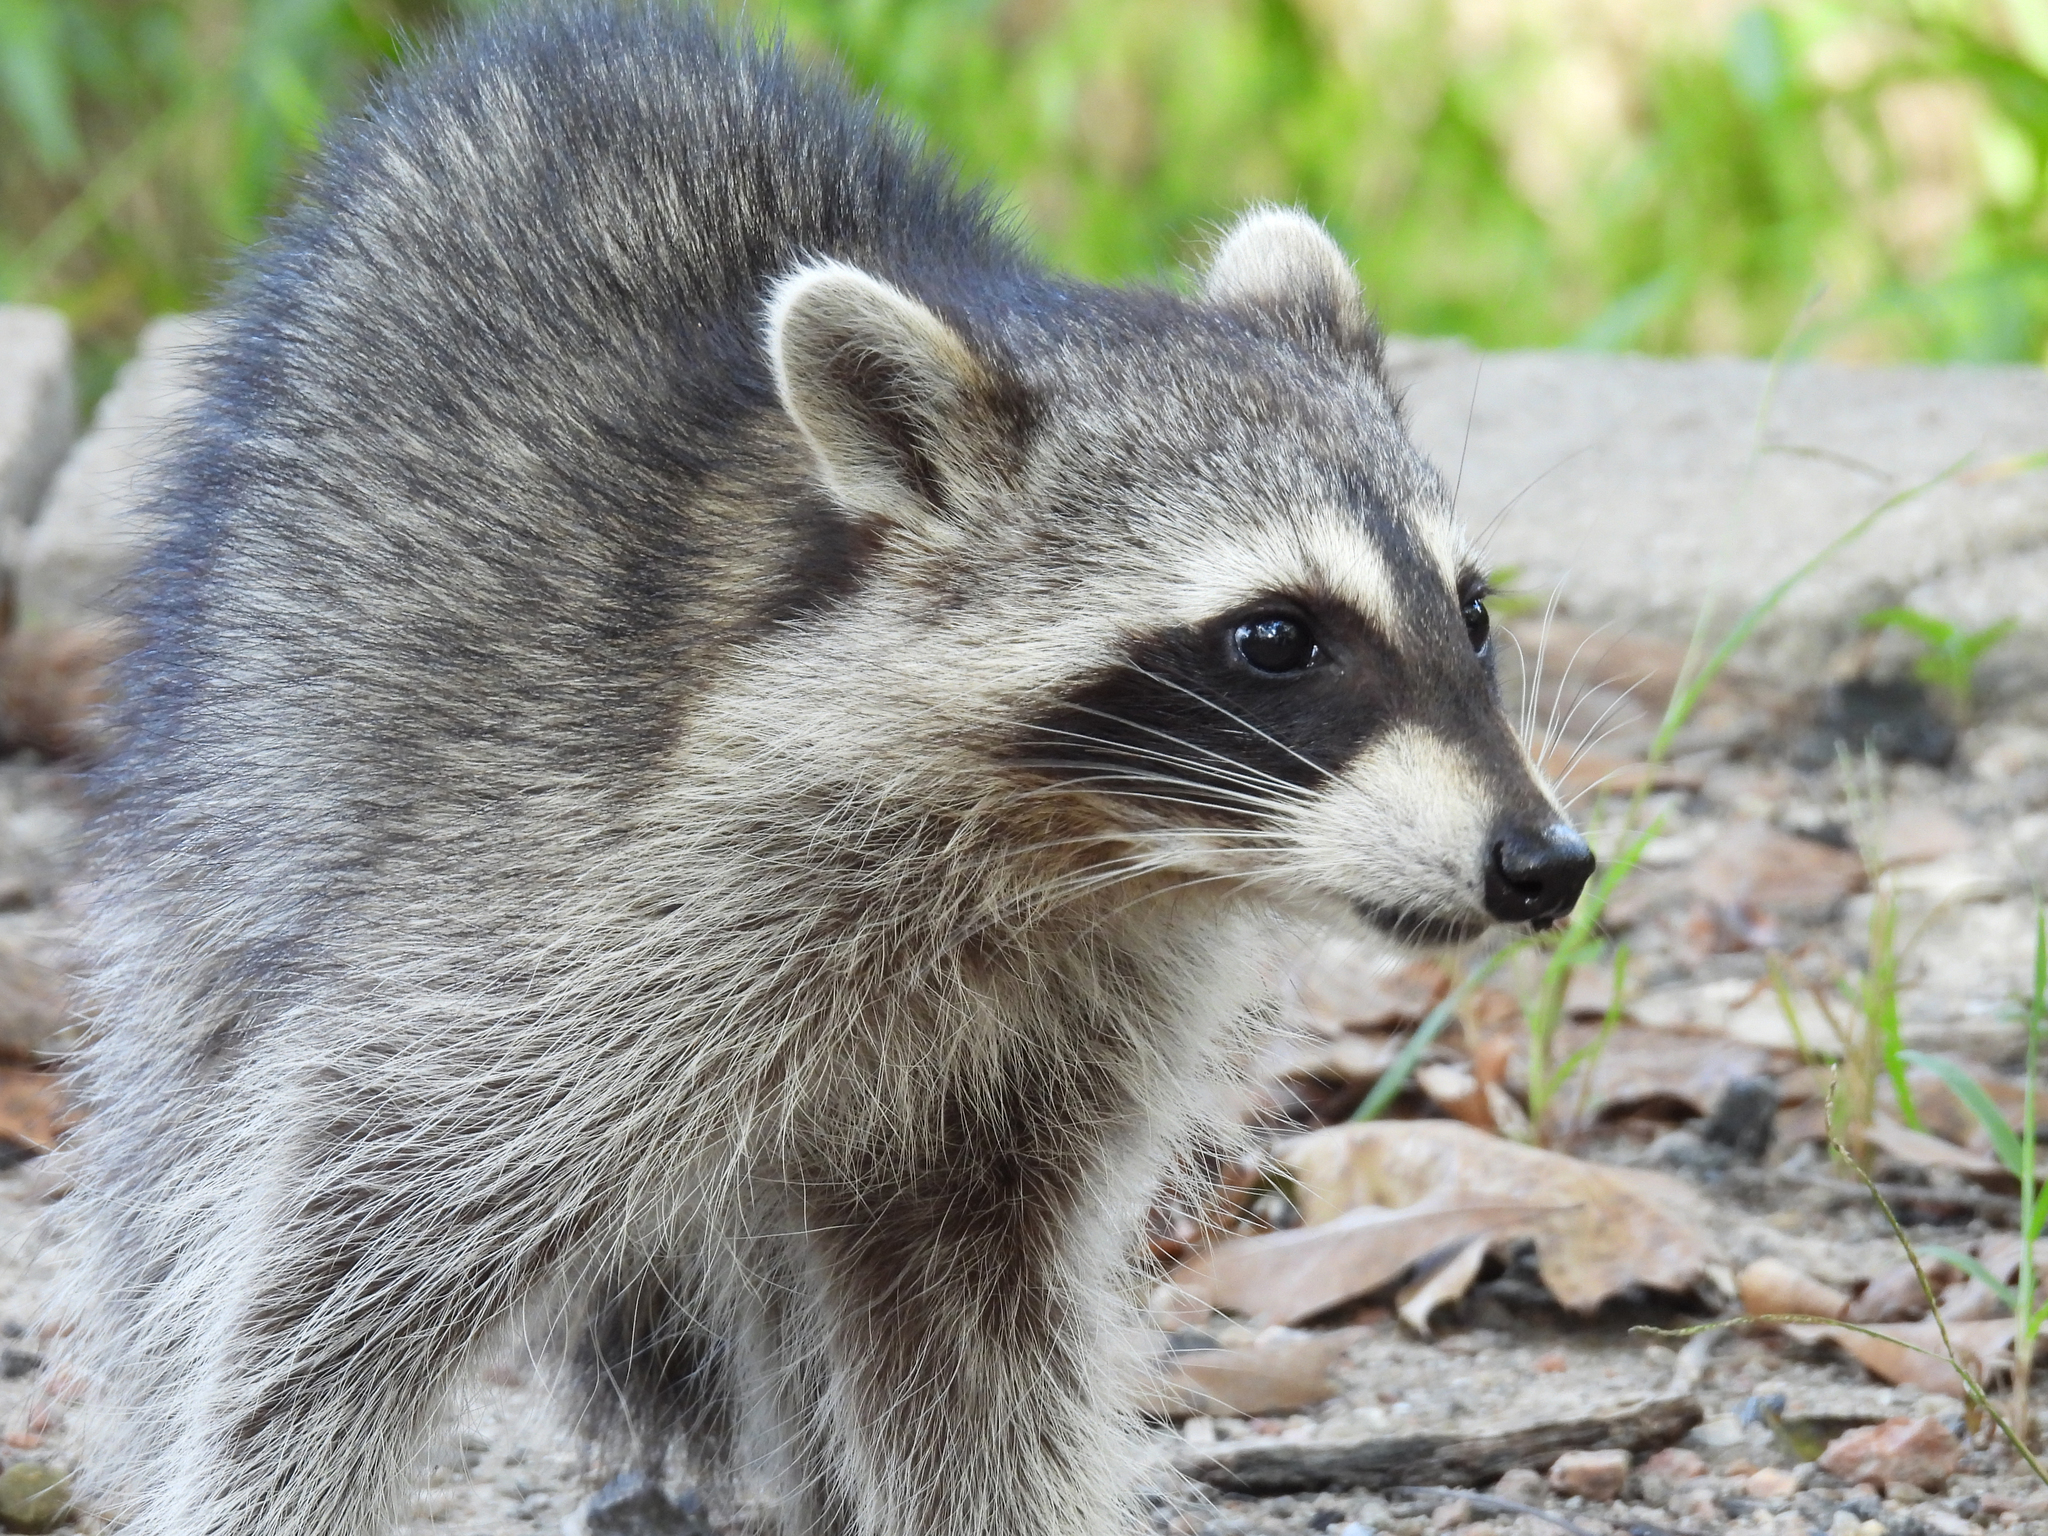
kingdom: Animalia
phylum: Chordata
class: Mammalia
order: Carnivora
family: Procyonidae
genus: Procyon
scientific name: Procyon lotor
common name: Raccoon
